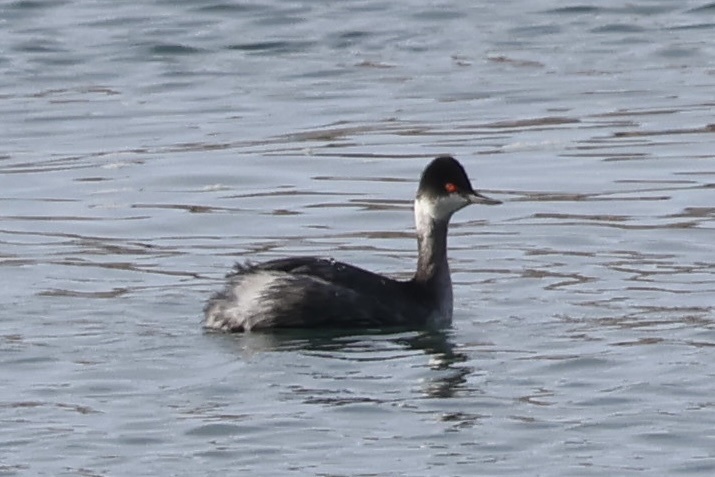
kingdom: Animalia
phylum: Chordata
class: Aves
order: Podicipediformes
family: Podicipedidae
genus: Podiceps
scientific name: Podiceps nigricollis
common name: Black-necked grebe
